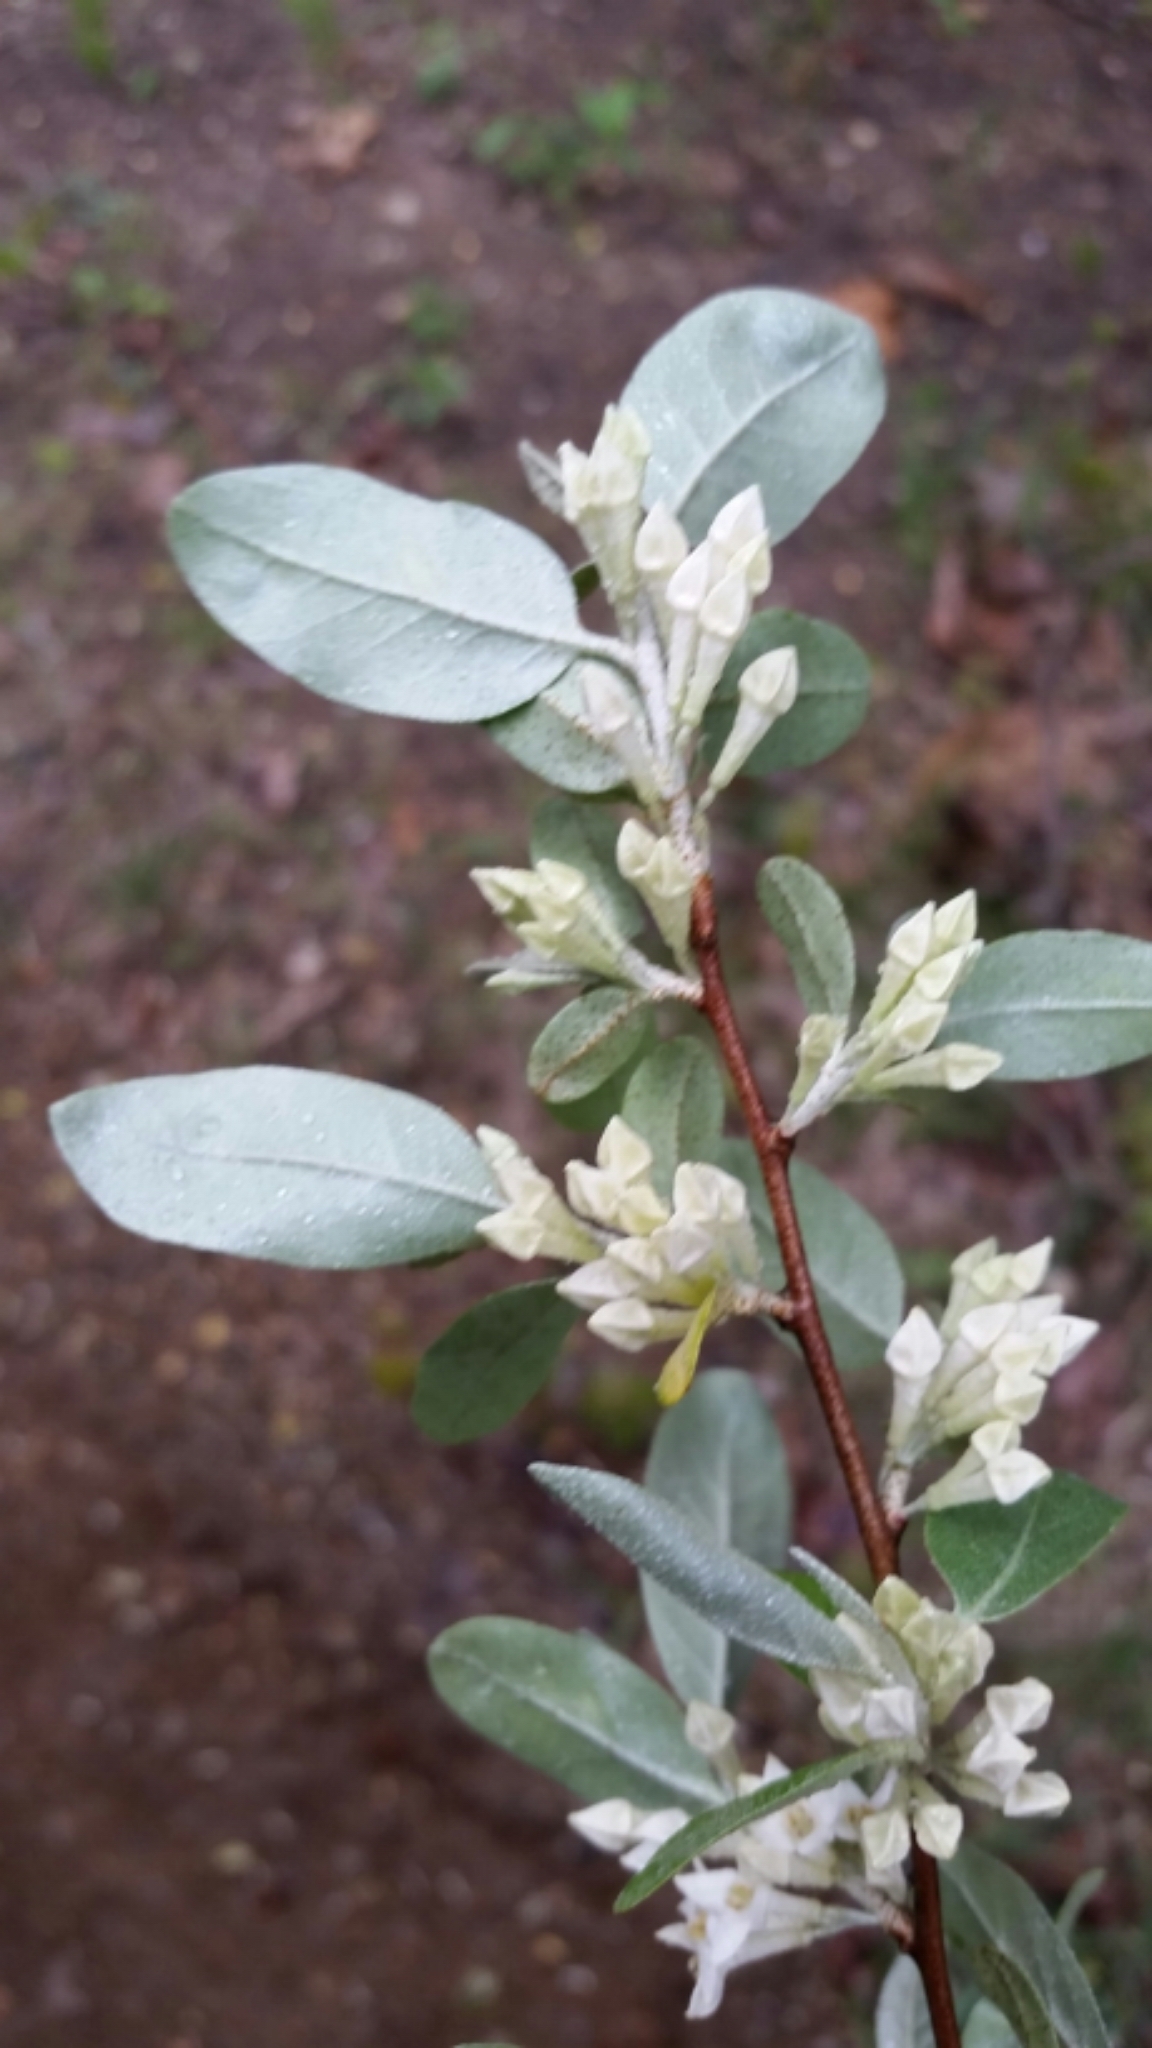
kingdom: Plantae
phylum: Tracheophyta
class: Magnoliopsida
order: Rosales
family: Elaeagnaceae
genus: Elaeagnus
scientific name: Elaeagnus umbellata
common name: Autumn olive
